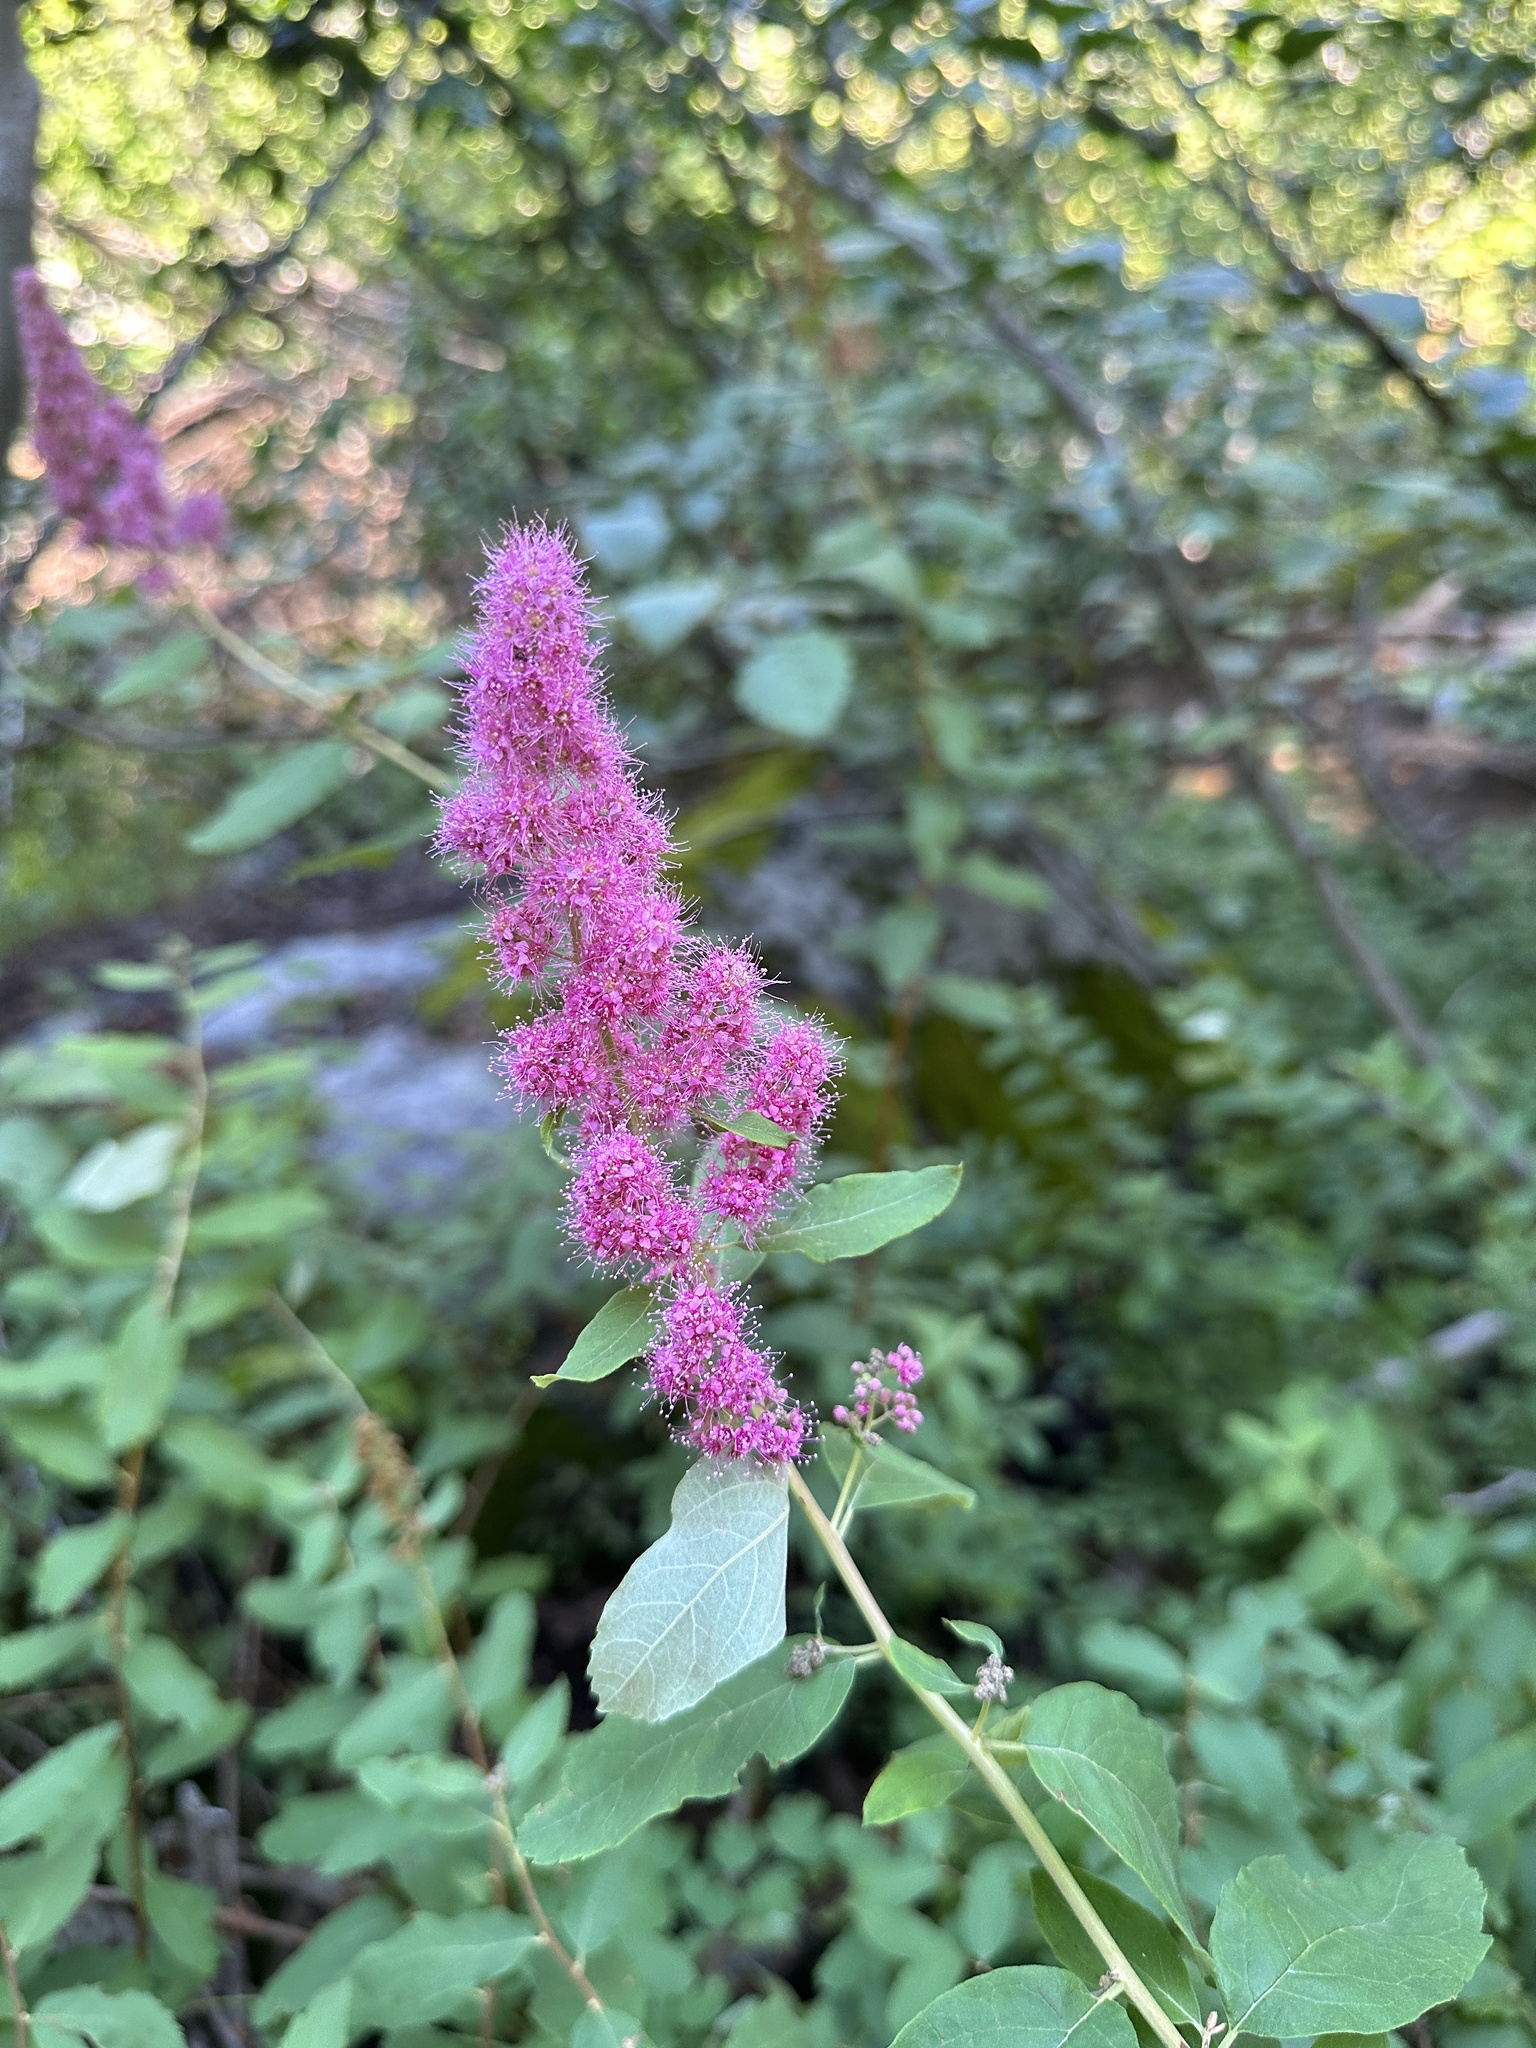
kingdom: Plantae
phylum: Tracheophyta
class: Magnoliopsida
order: Rosales
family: Rosaceae
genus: Spiraea
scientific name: Spiraea douglasii
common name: Steeplebush
